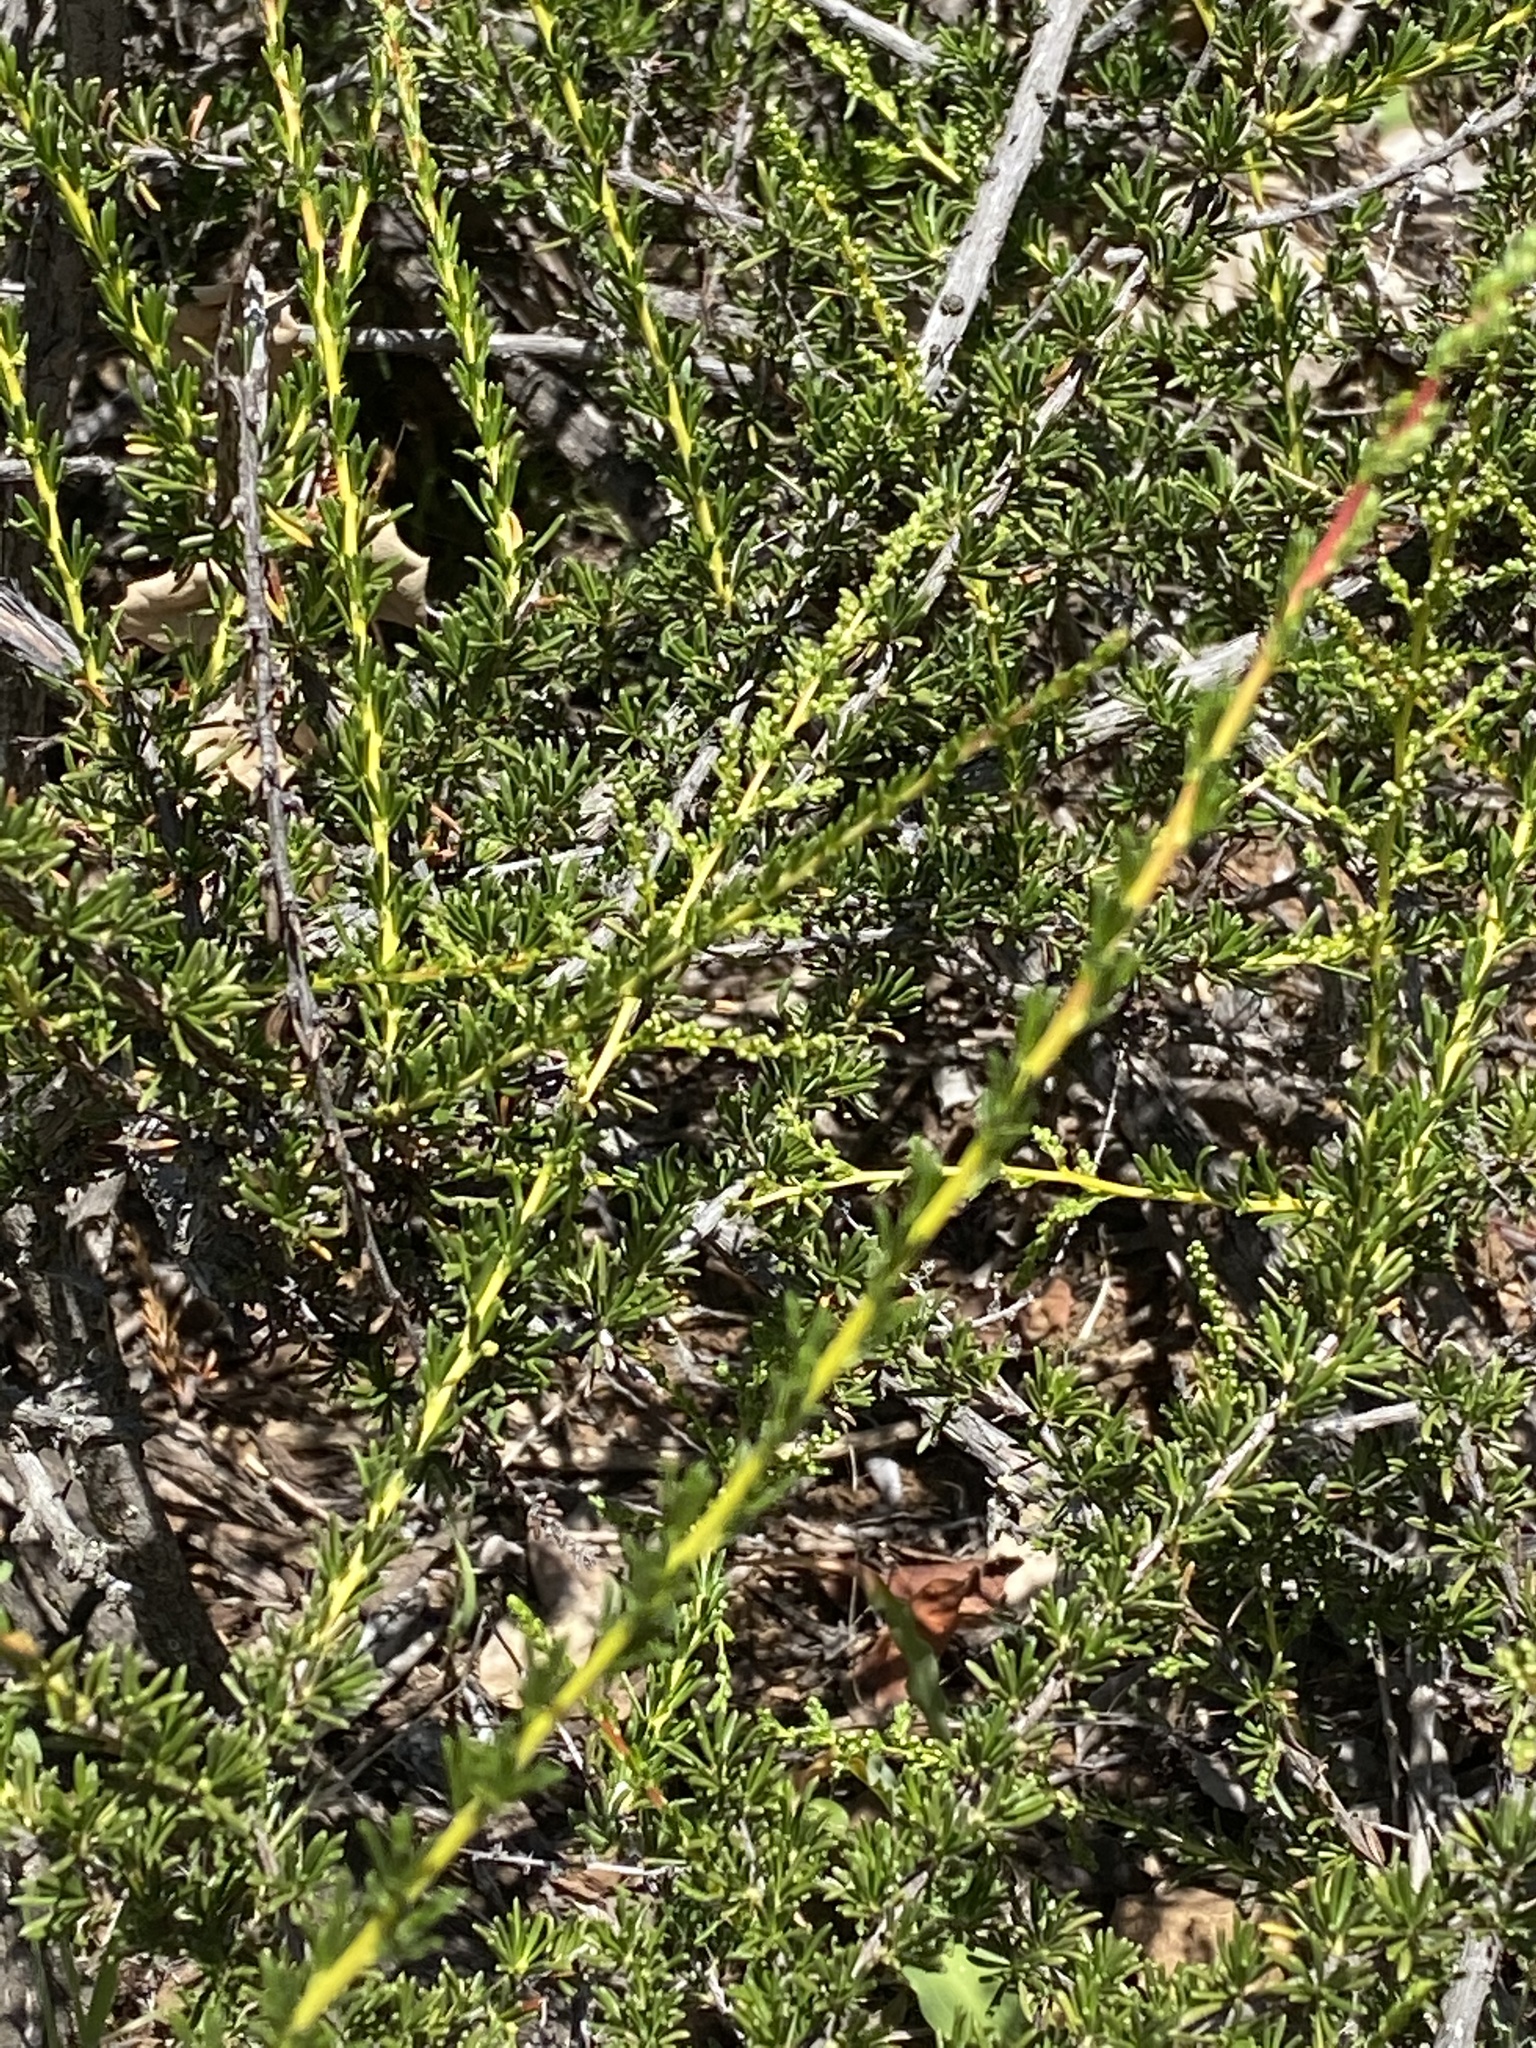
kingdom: Plantae
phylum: Tracheophyta
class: Magnoliopsida
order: Rosales
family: Rosaceae
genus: Adenostoma
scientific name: Adenostoma fasciculatum
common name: Chamise
